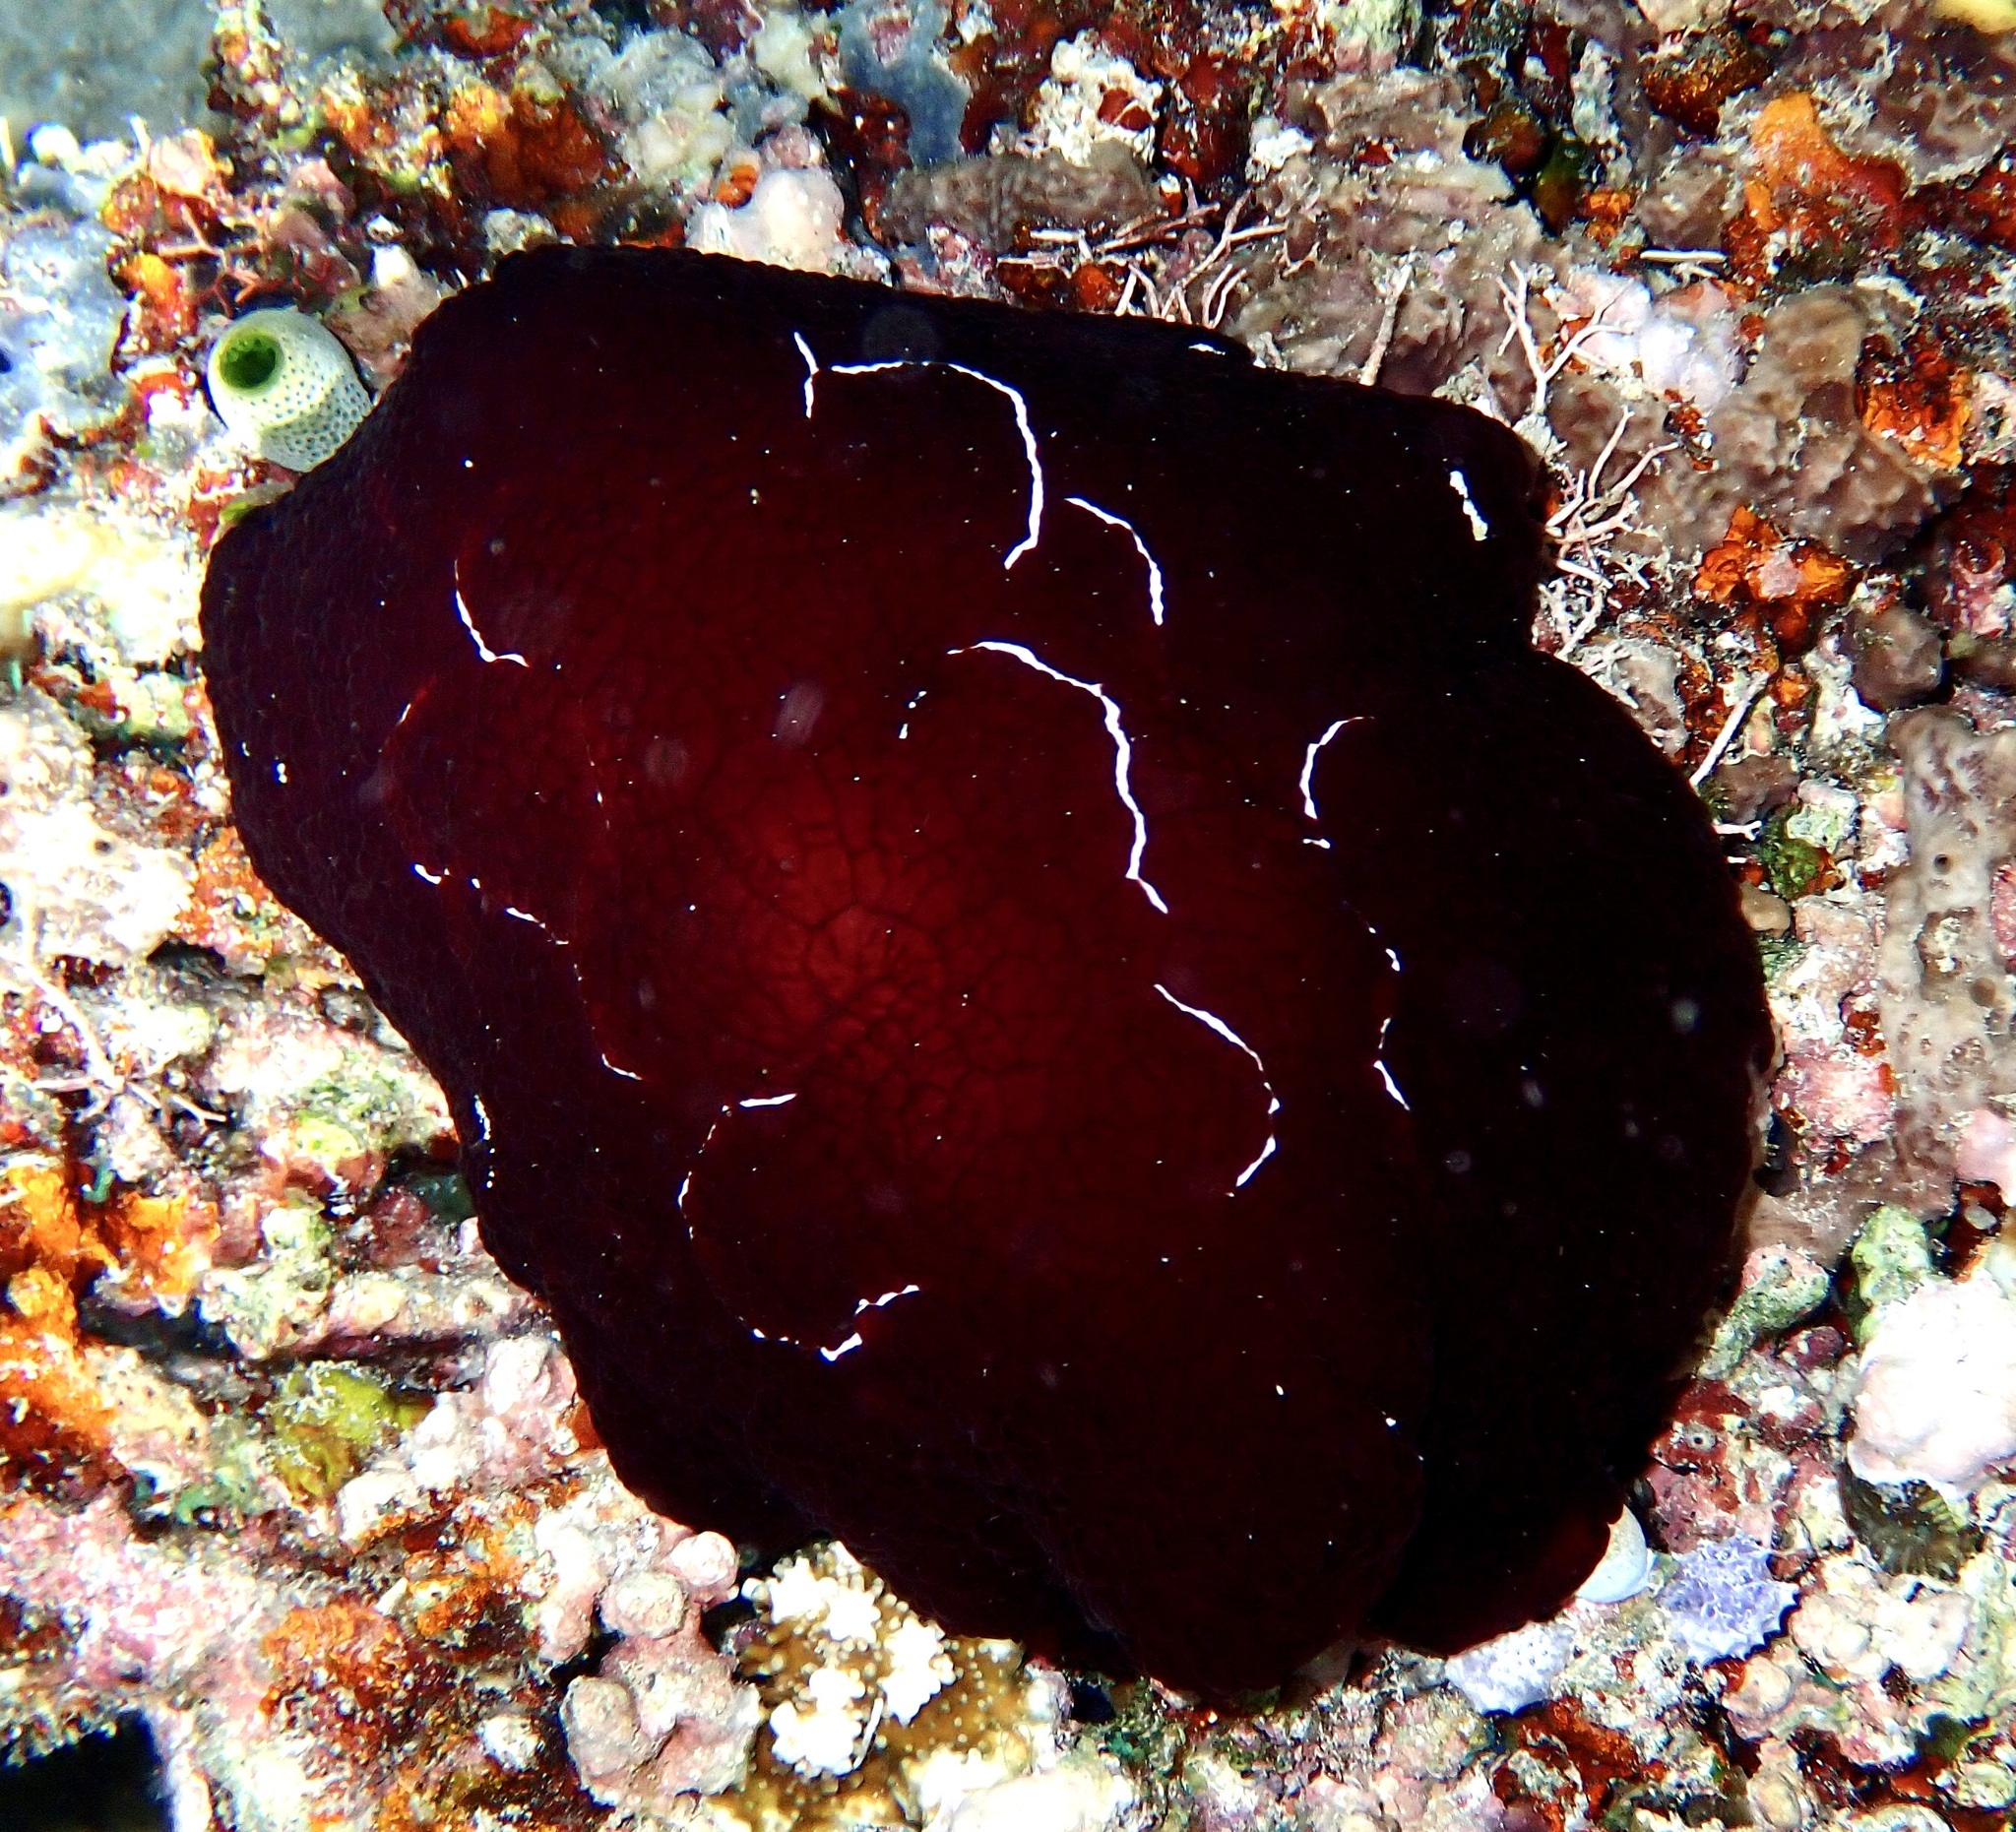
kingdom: Animalia
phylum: Mollusca
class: Gastropoda
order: Pleurobranchida
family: Pleurobranchidae
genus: Pleurobranchus
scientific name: Pleurobranchus forskalii
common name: Forskal's side-gilled sea slug
